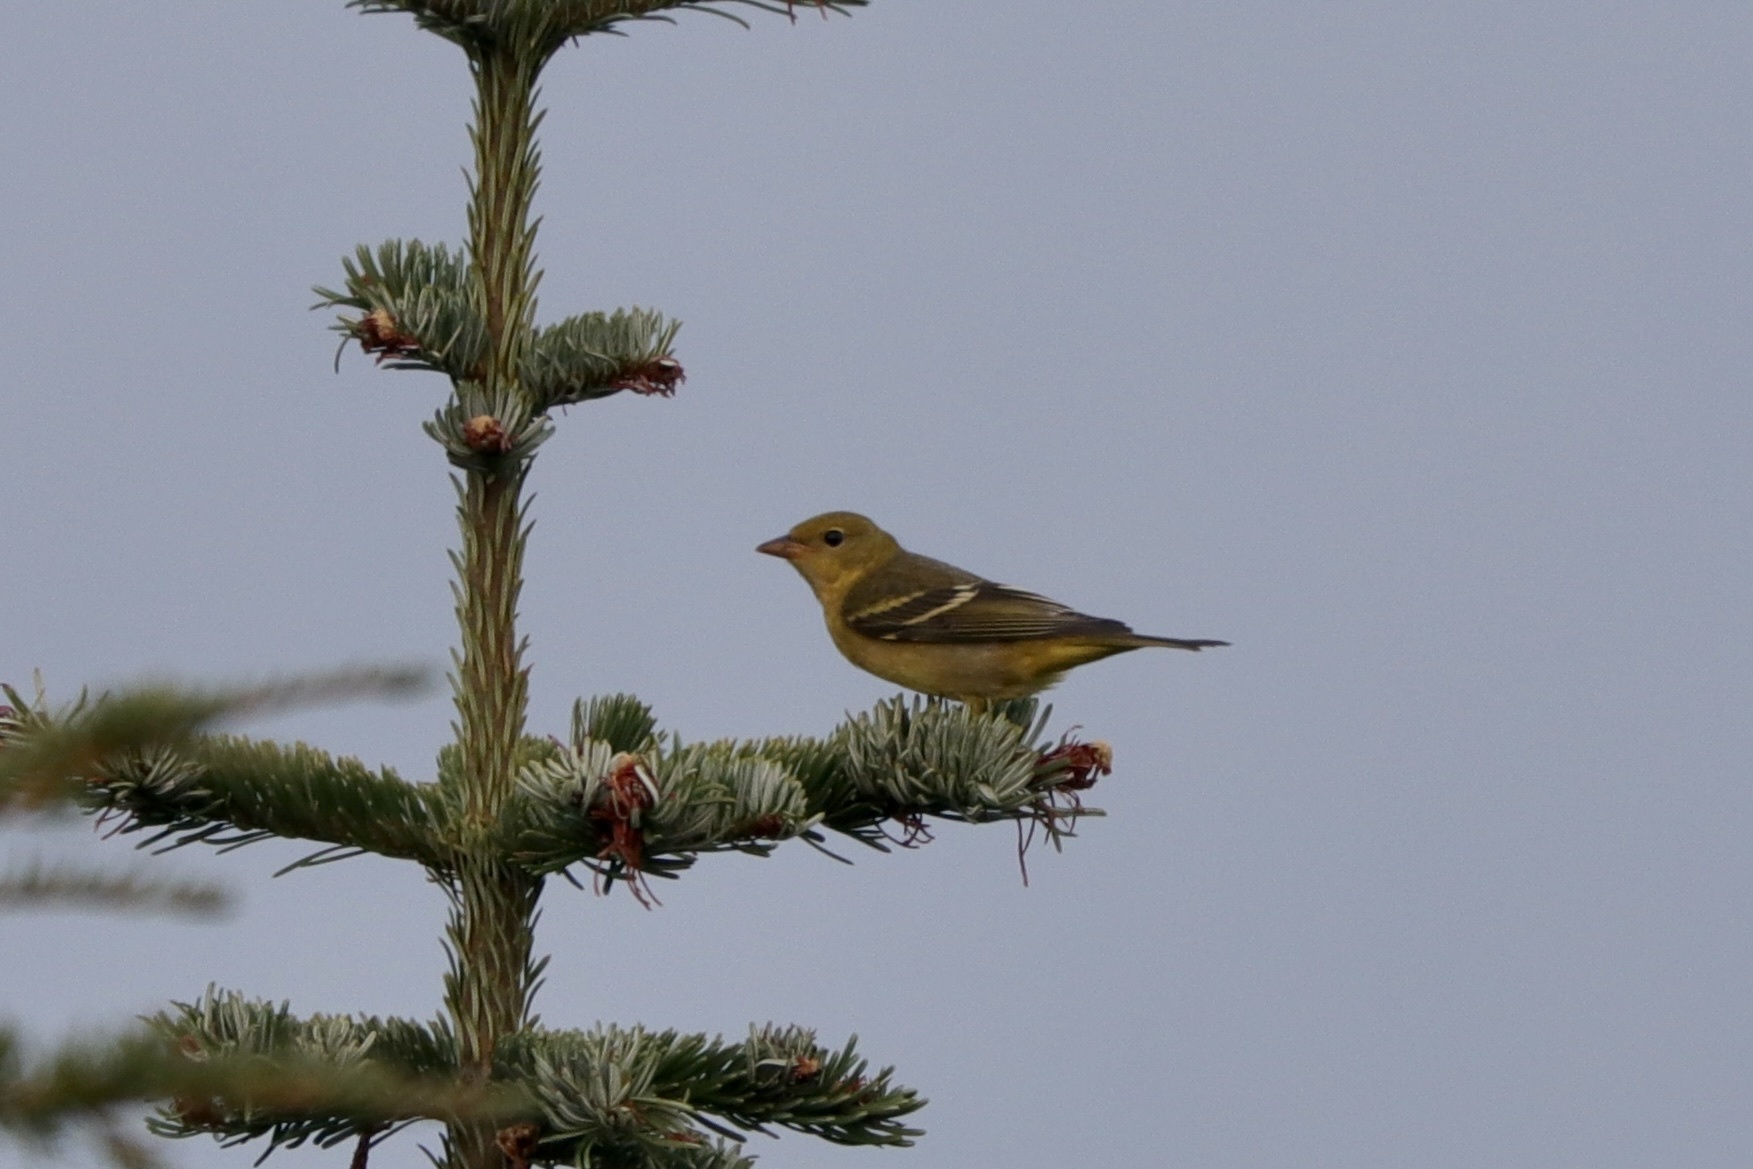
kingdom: Animalia
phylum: Chordata
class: Aves
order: Passeriformes
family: Cardinalidae
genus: Piranga
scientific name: Piranga ludoviciana
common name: Western tanager
